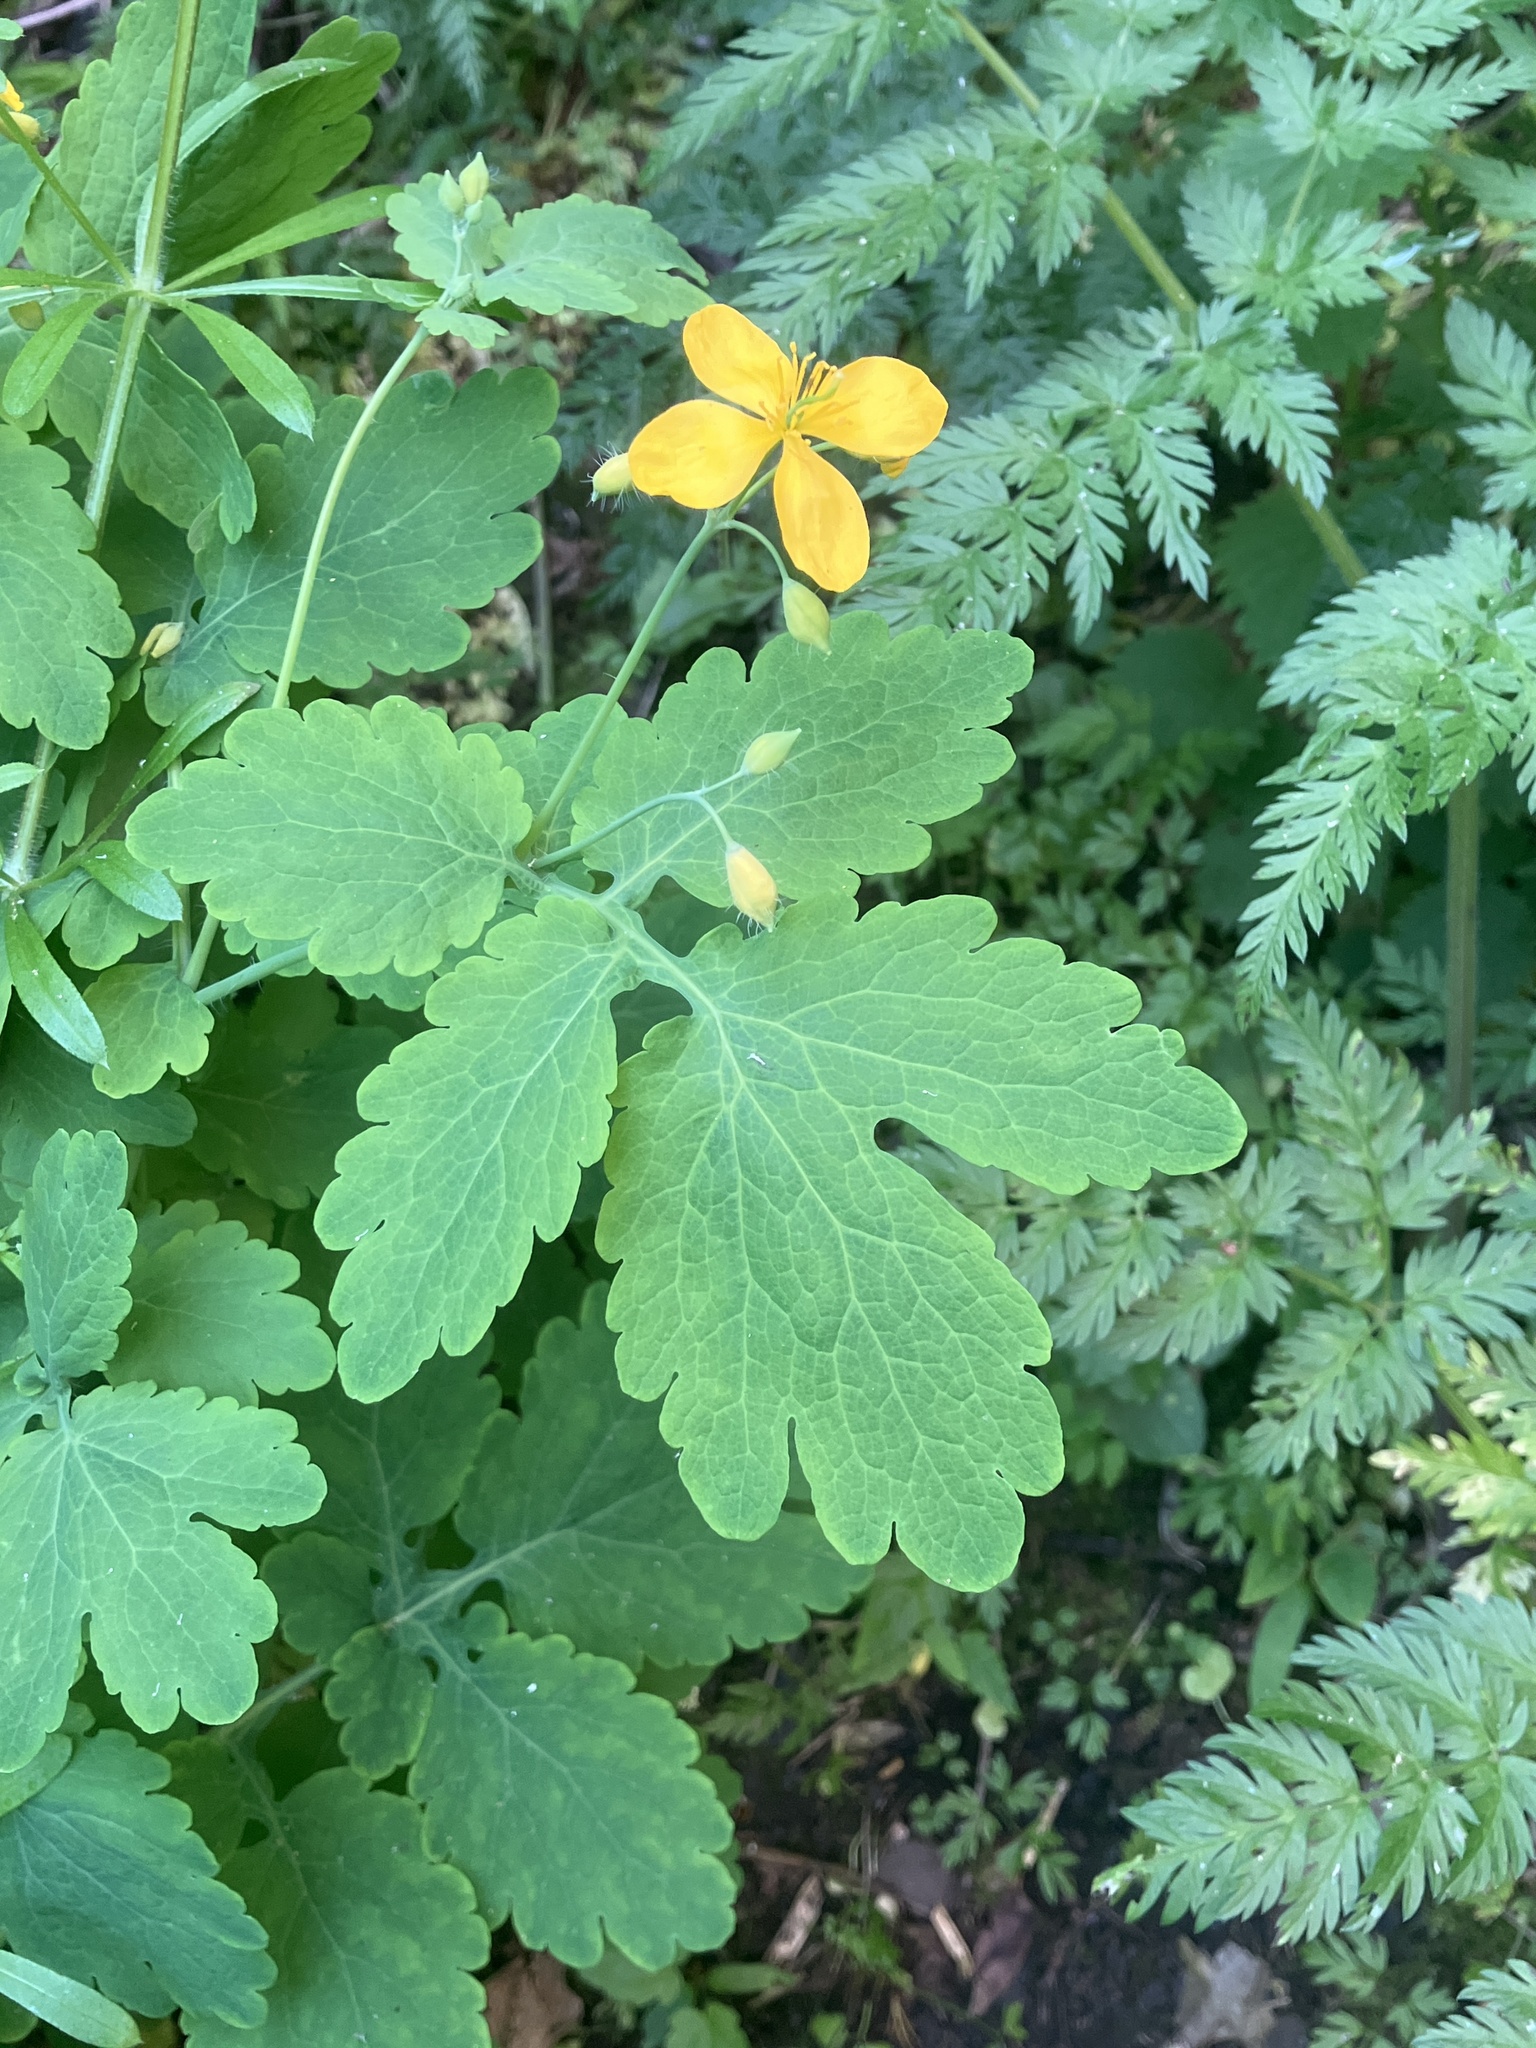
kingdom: Plantae
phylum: Tracheophyta
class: Magnoliopsida
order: Ranunculales
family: Papaveraceae
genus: Chelidonium
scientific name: Chelidonium majus
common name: Greater celandine
